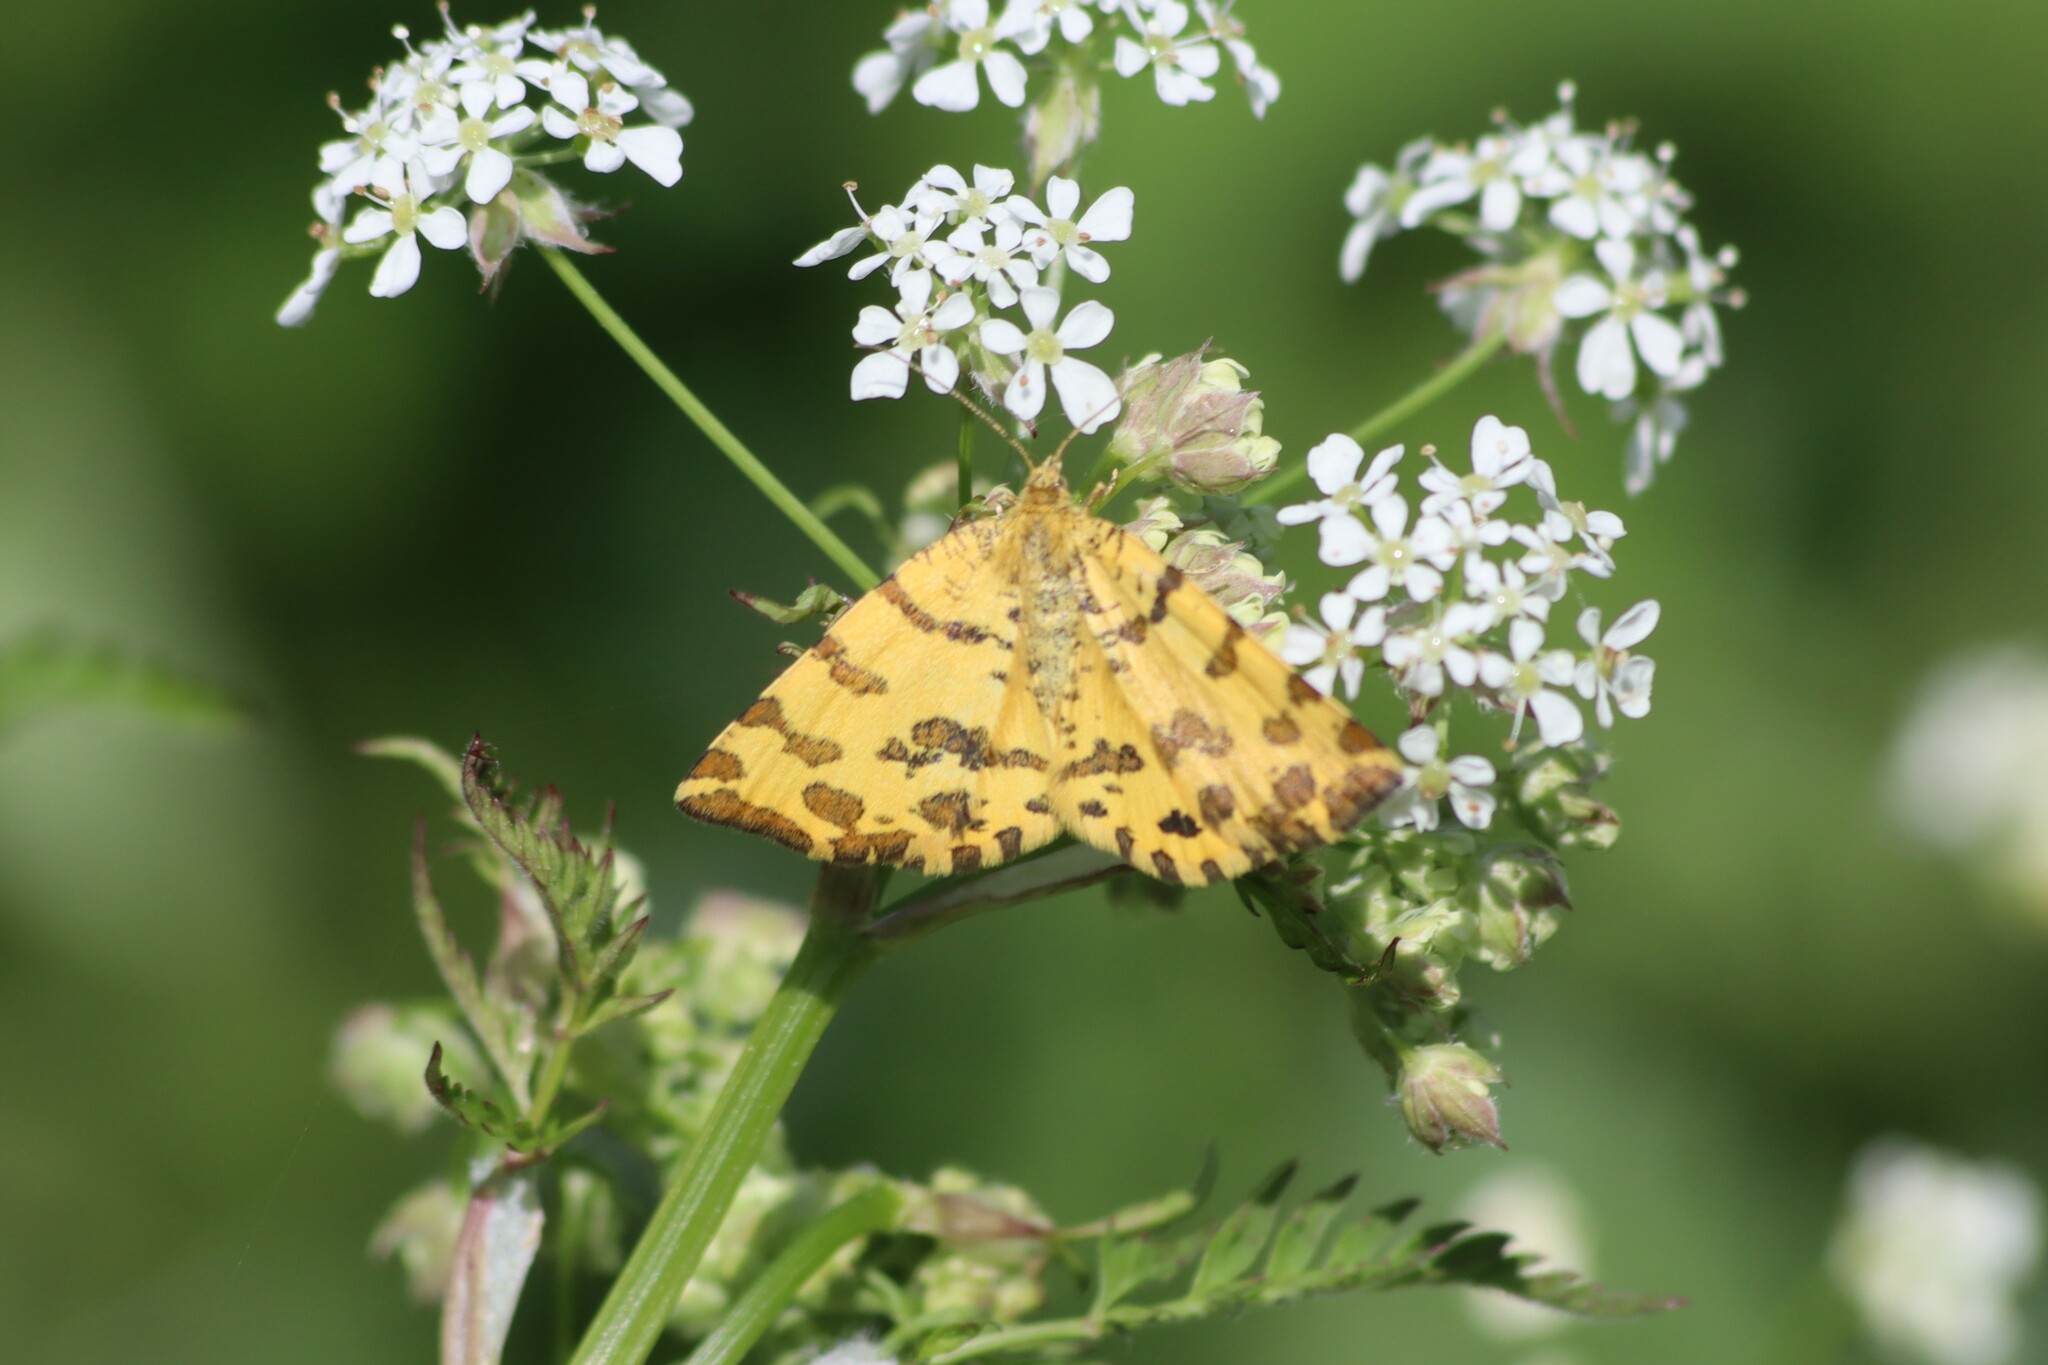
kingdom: Animalia
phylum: Arthropoda
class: Insecta
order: Lepidoptera
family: Geometridae
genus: Pseudopanthera
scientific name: Pseudopanthera macularia
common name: Speckled yellow
